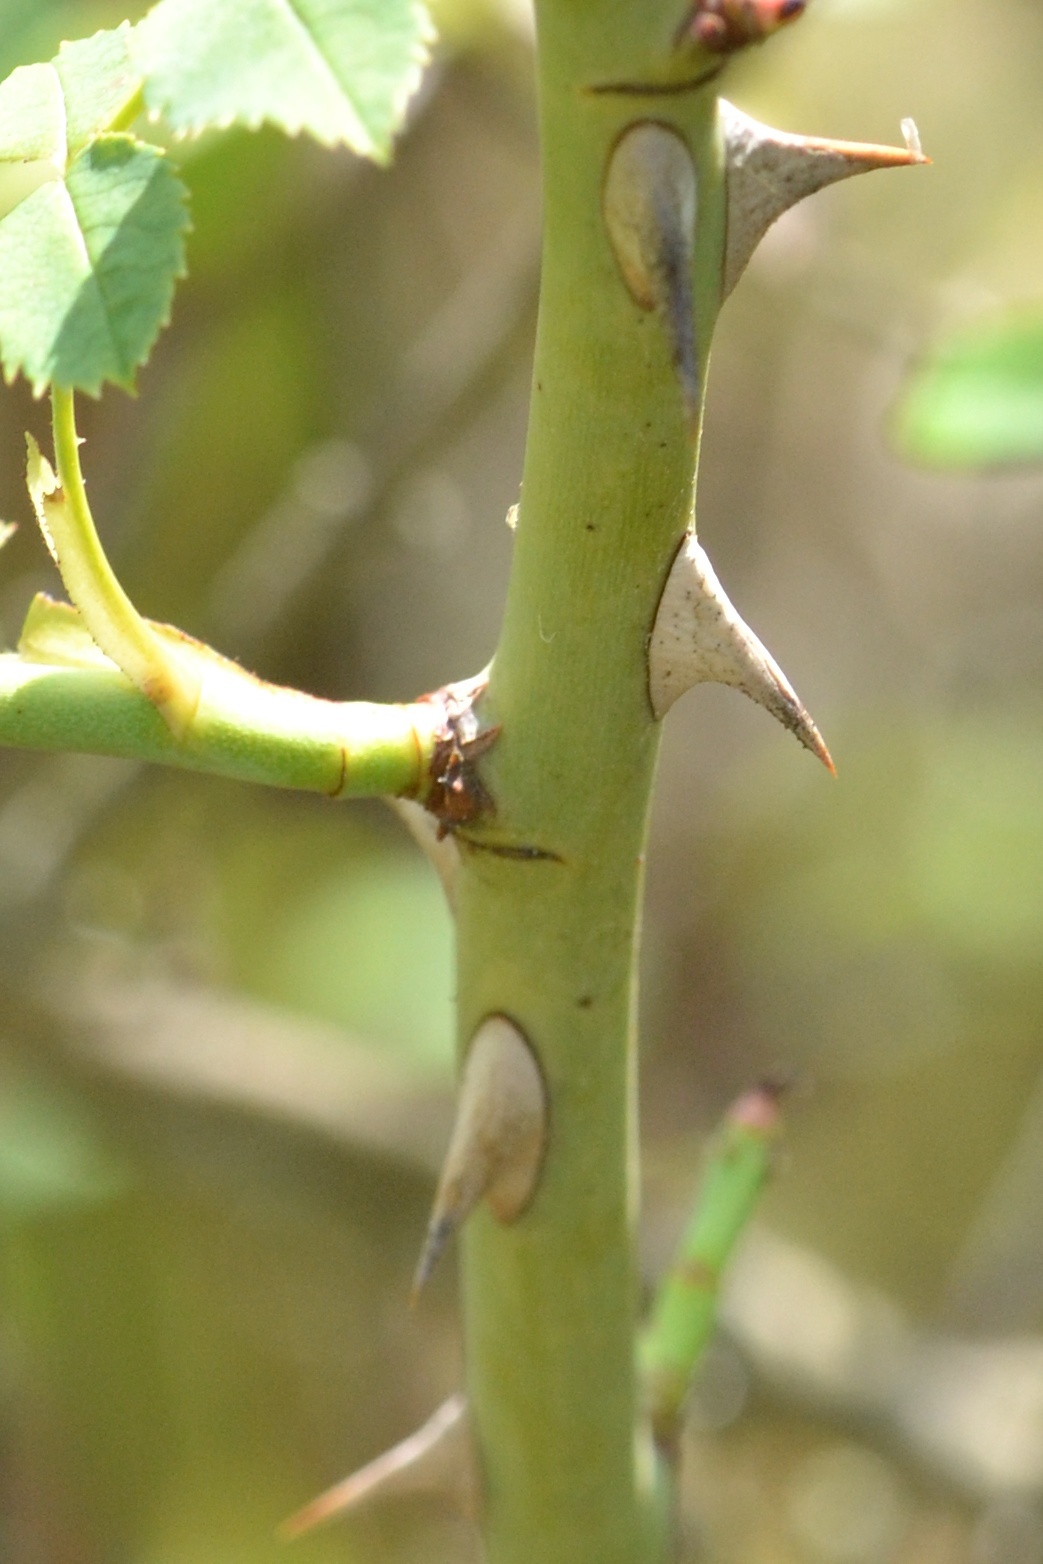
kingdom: Plantae
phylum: Tracheophyta
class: Magnoliopsida
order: Rosales
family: Rosaceae
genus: Rosa
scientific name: Rosa canina
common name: Dog rose
